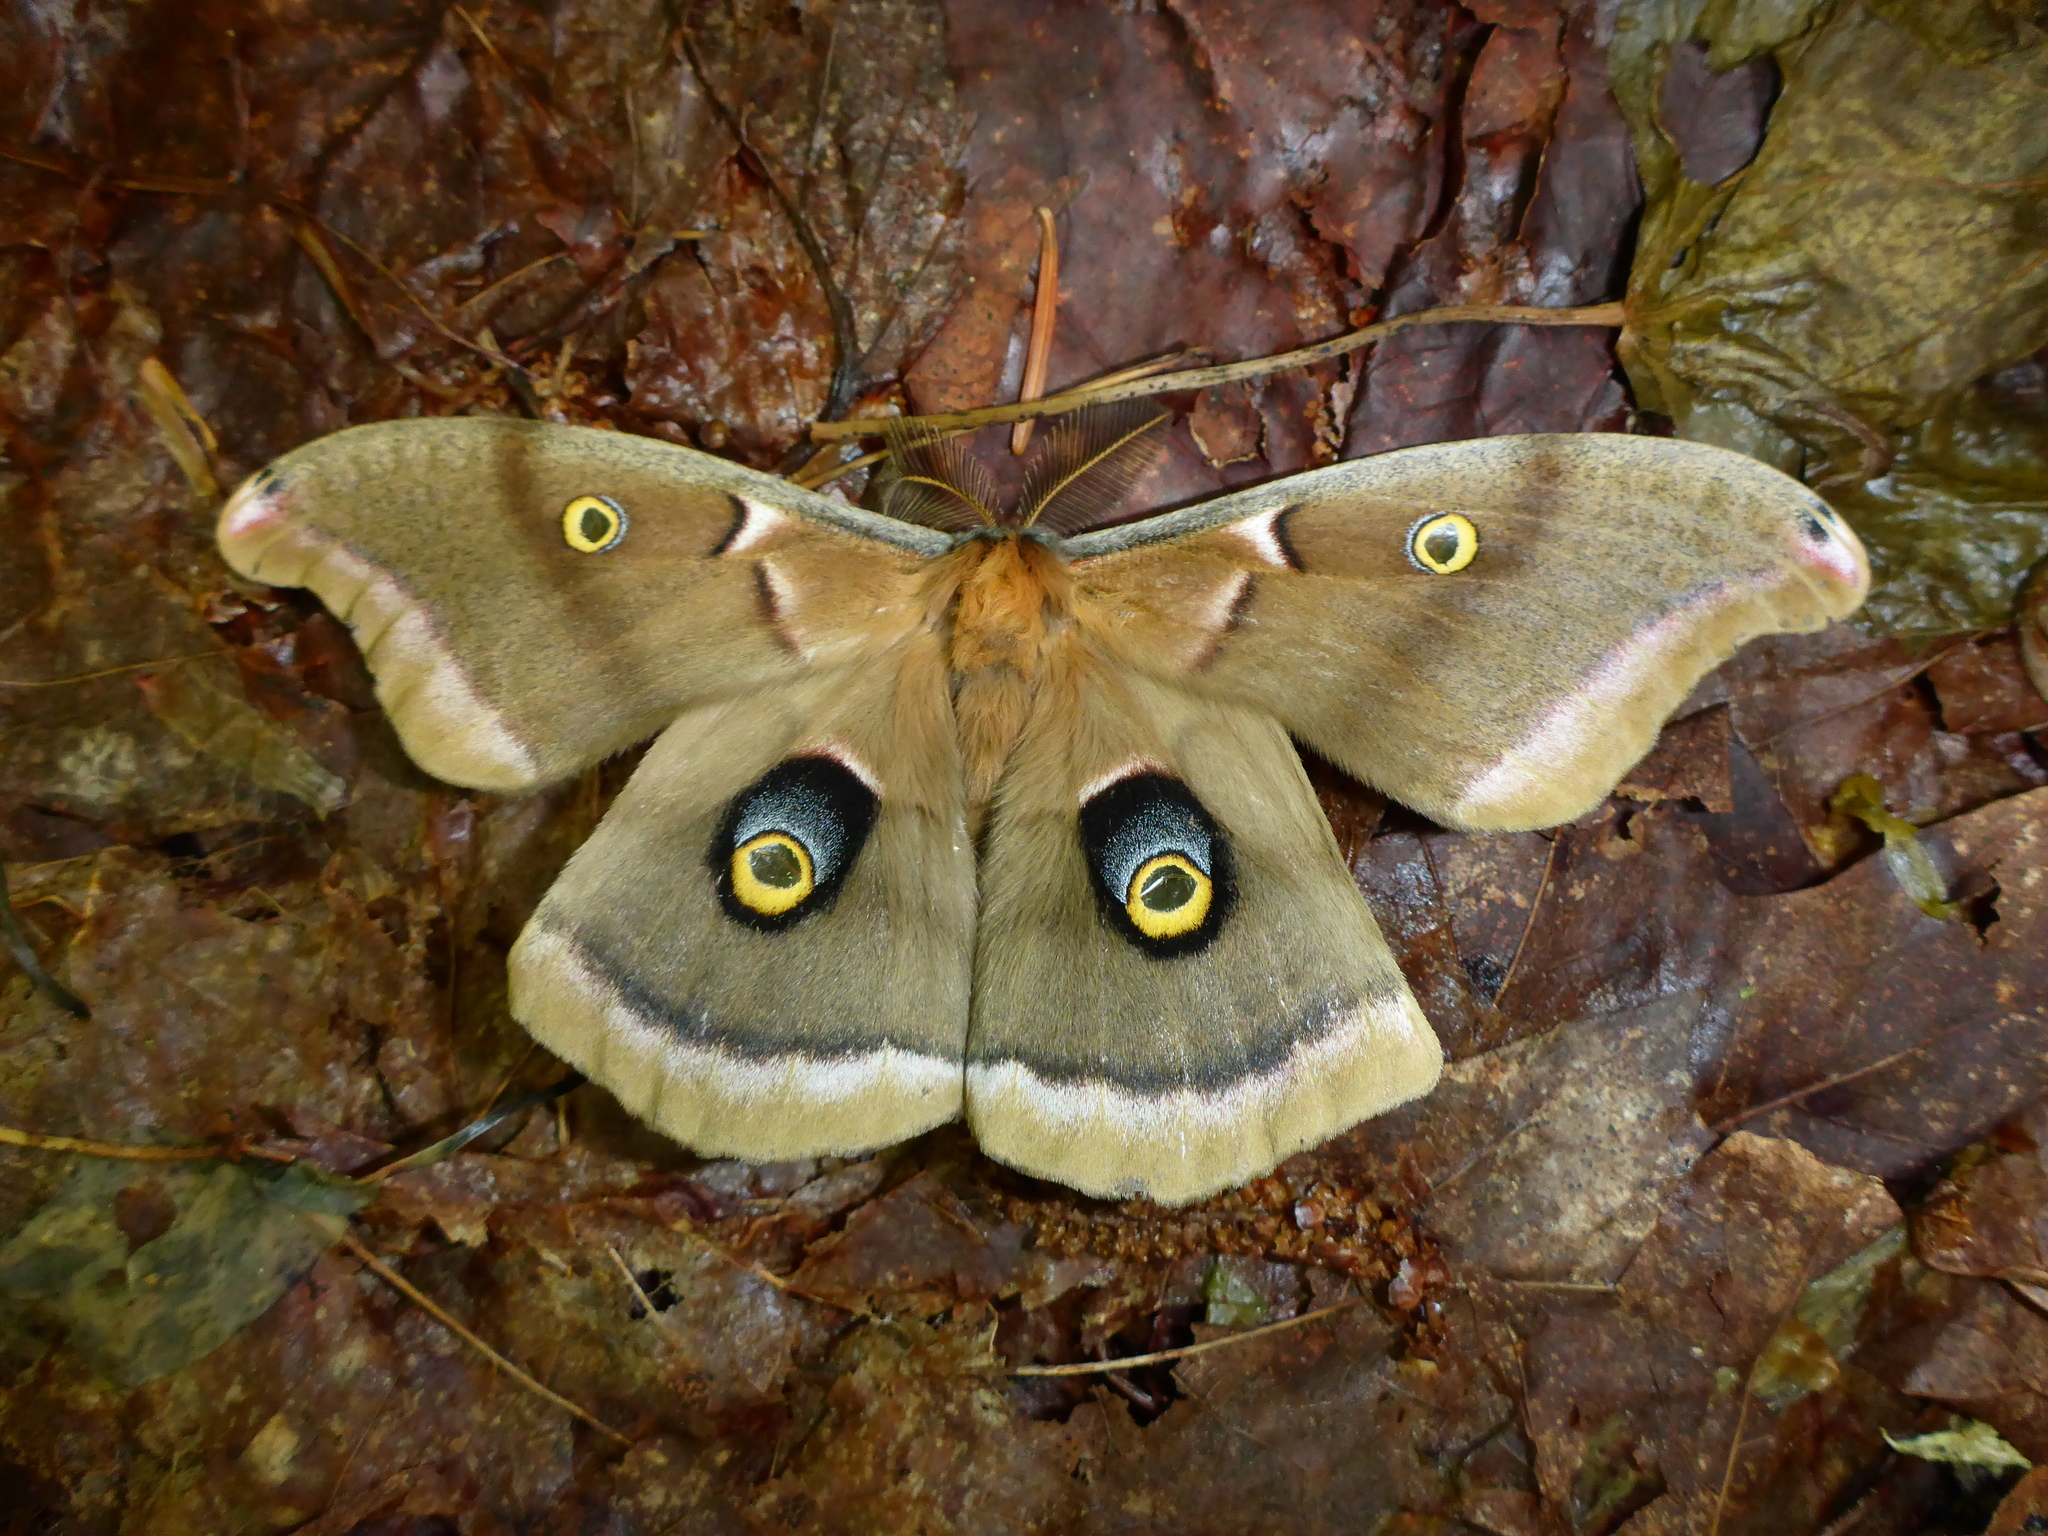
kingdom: Animalia
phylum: Arthropoda
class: Insecta
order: Lepidoptera
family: Saturniidae
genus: Antheraea
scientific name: Antheraea polyphemus
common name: Polyphemus moth
